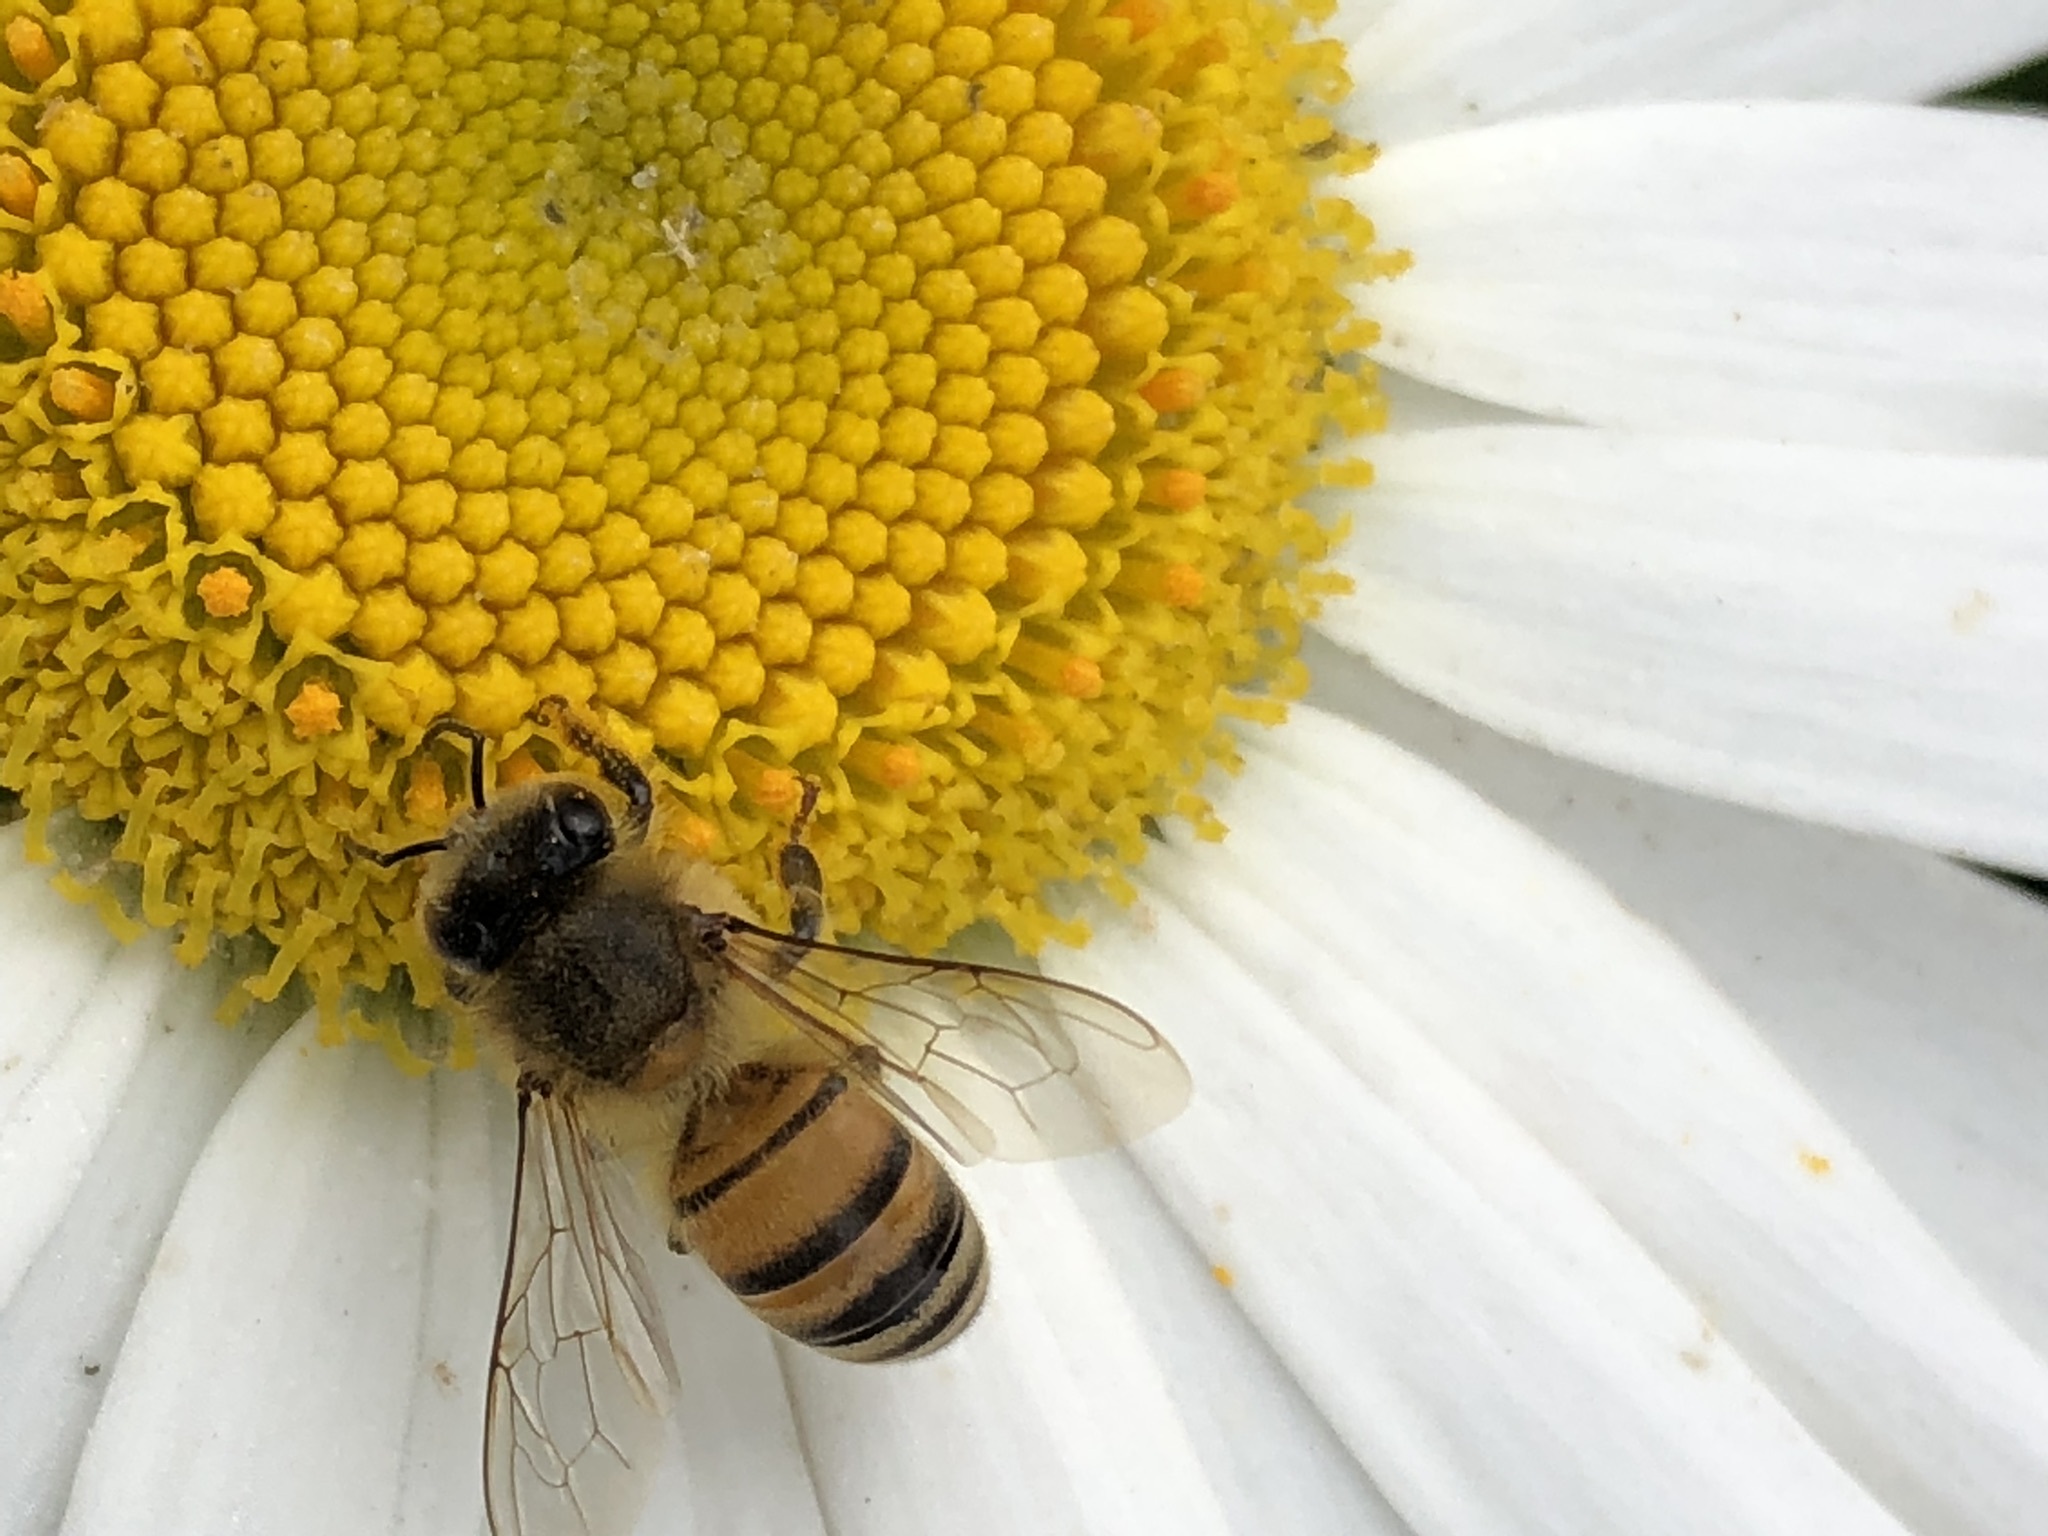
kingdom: Animalia
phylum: Arthropoda
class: Insecta
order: Hymenoptera
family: Apidae
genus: Apis
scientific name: Apis mellifera
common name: Honey bee
